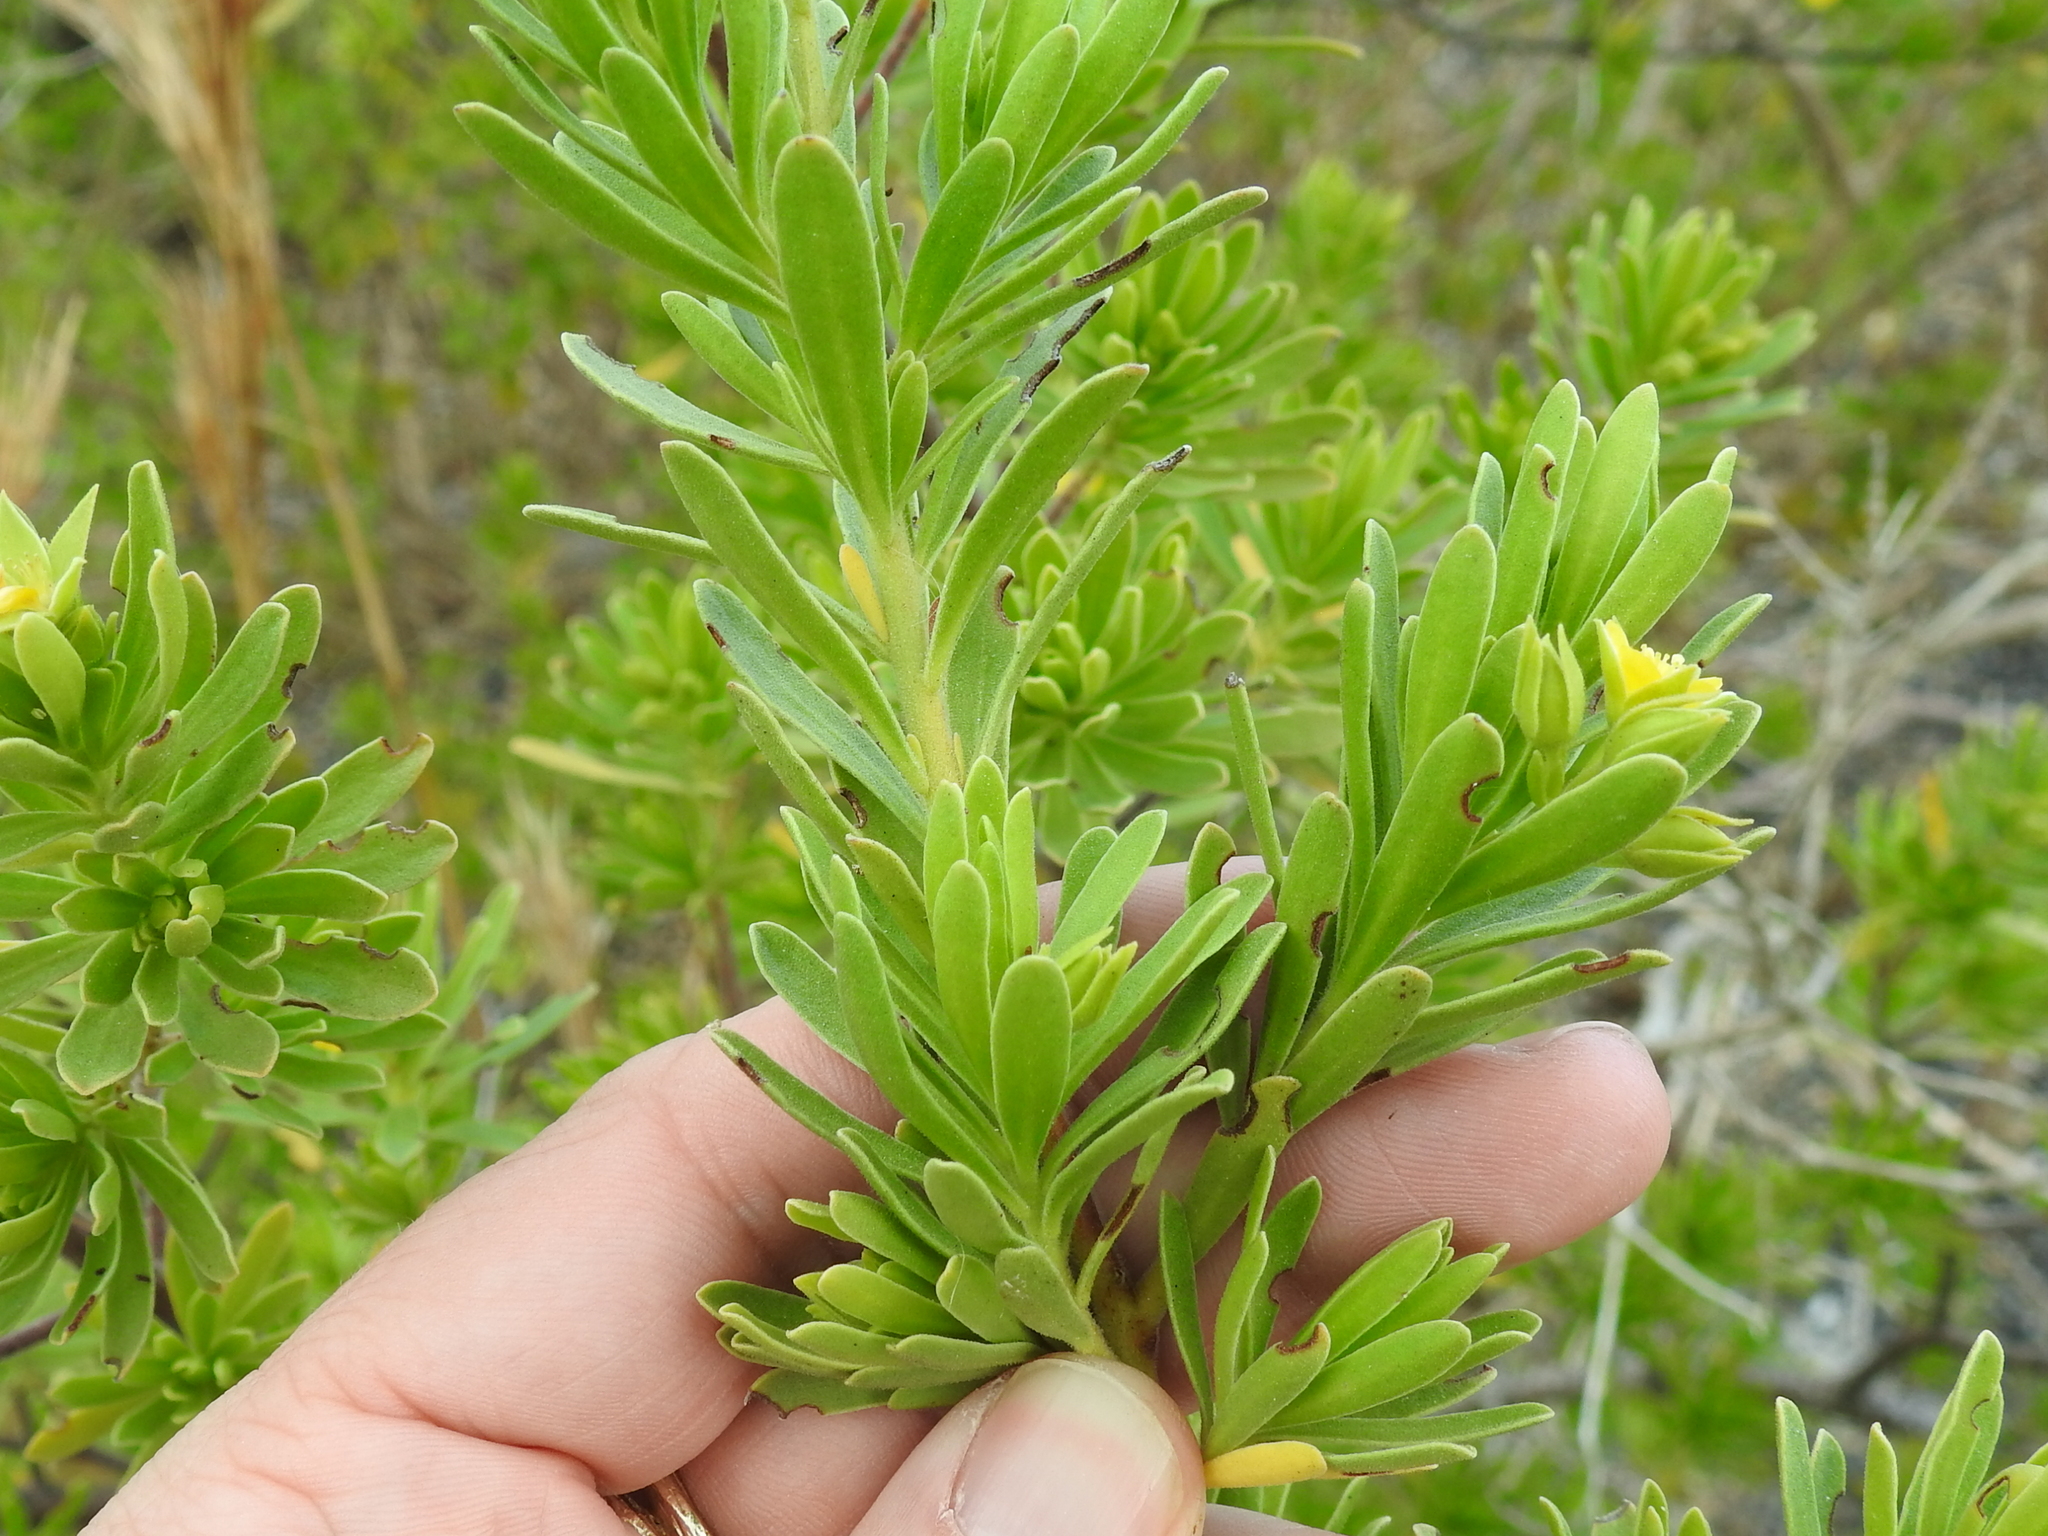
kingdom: Plantae
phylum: Tracheophyta
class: Magnoliopsida
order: Fabales
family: Surianaceae
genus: Suriana
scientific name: Suriana maritima
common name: Bay-cedar
